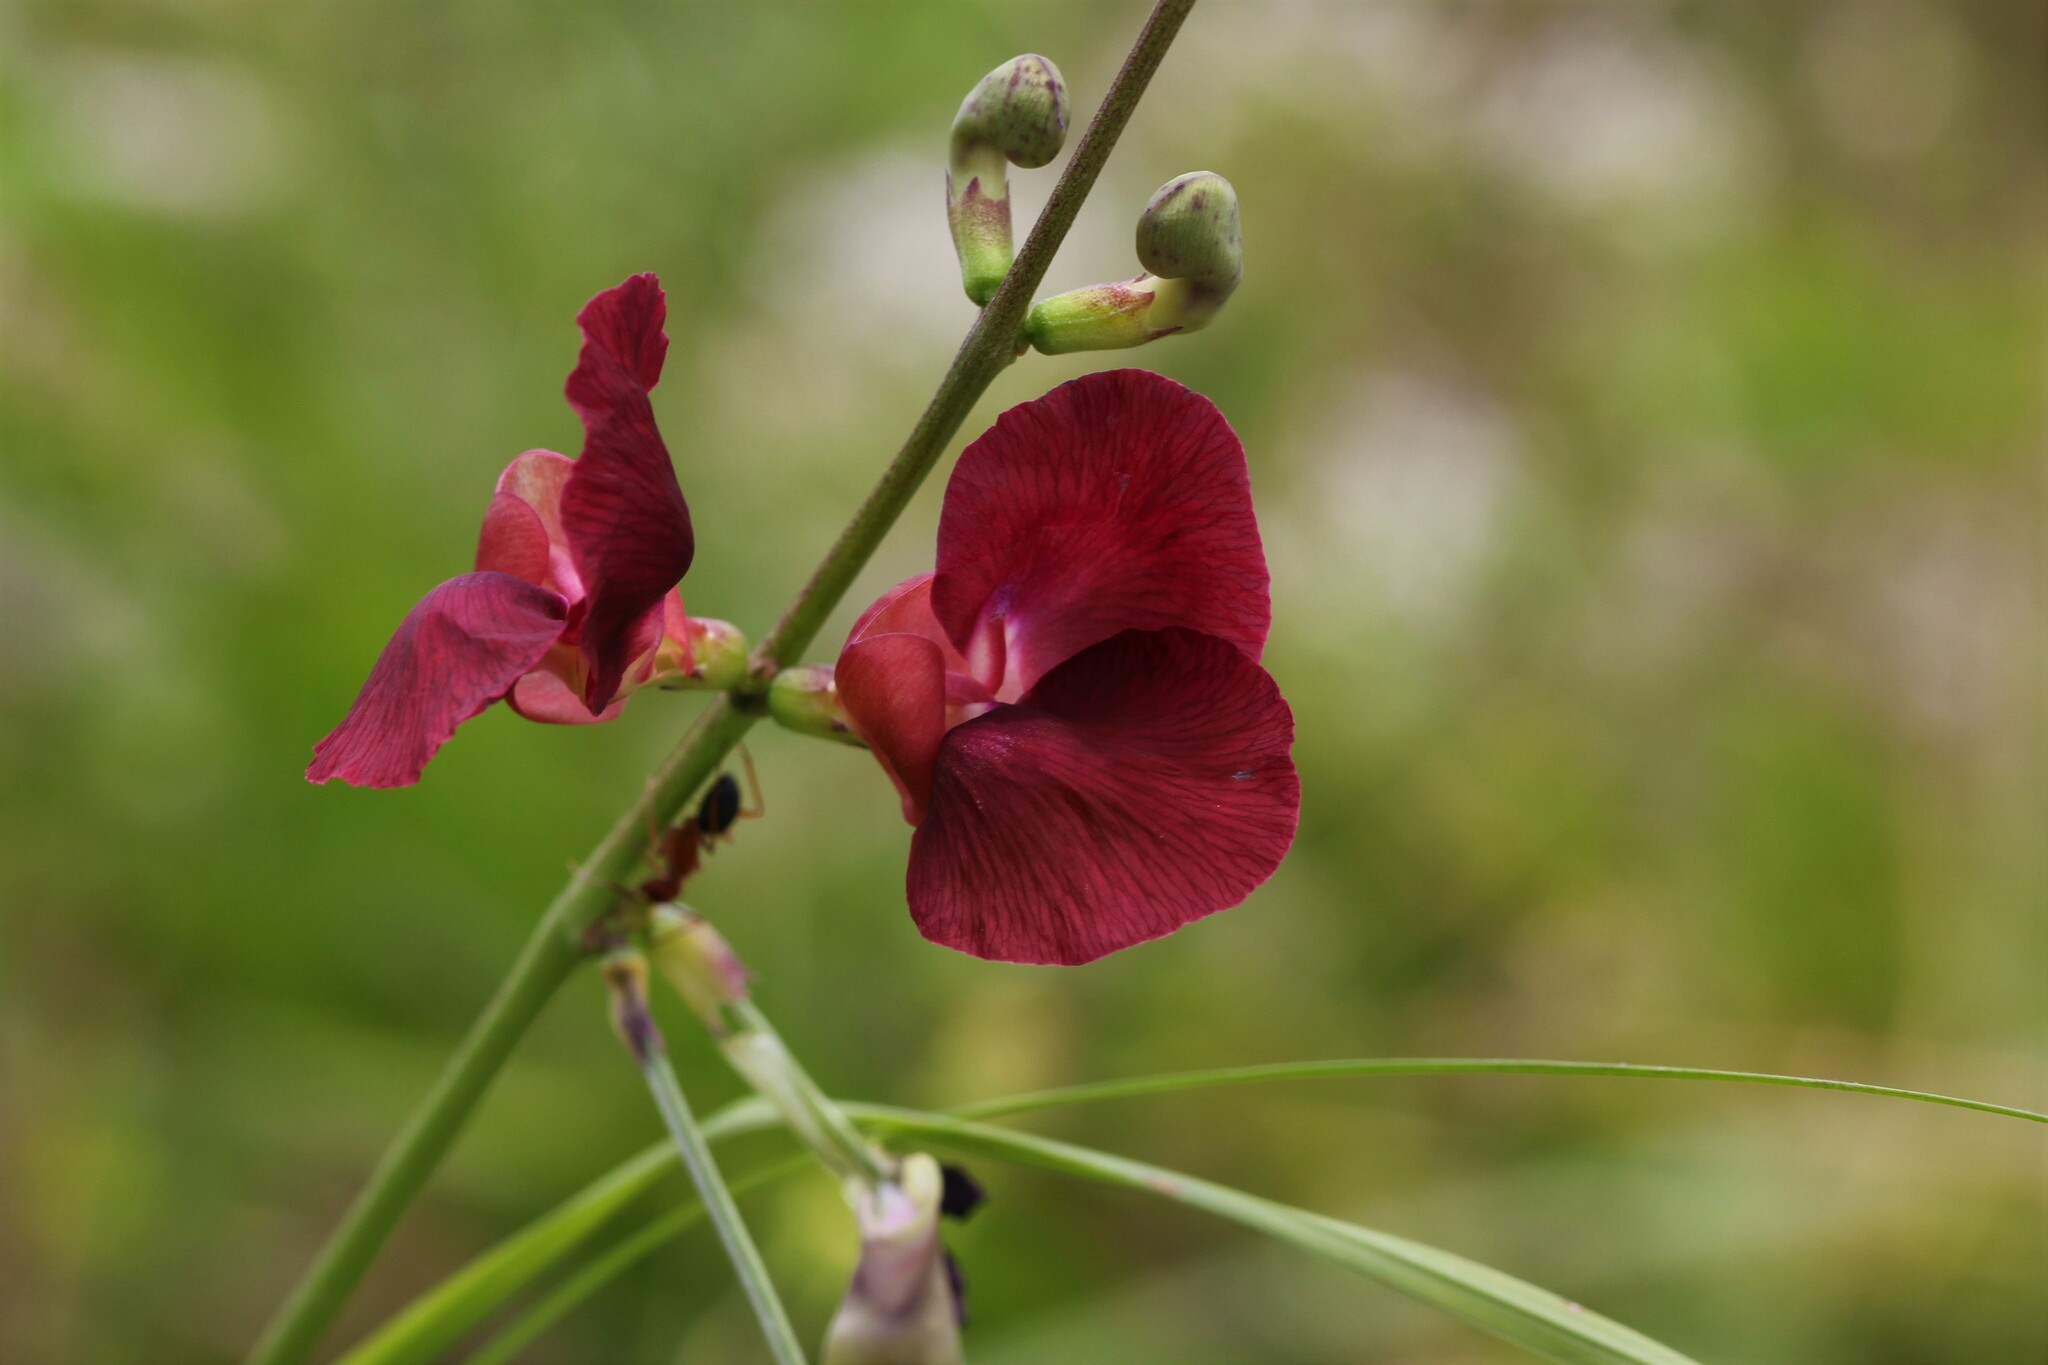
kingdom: Plantae
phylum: Tracheophyta
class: Magnoliopsida
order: Fabales
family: Fabaceae
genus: Macroptilium
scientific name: Macroptilium lathyroides
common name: Wild bushbean
